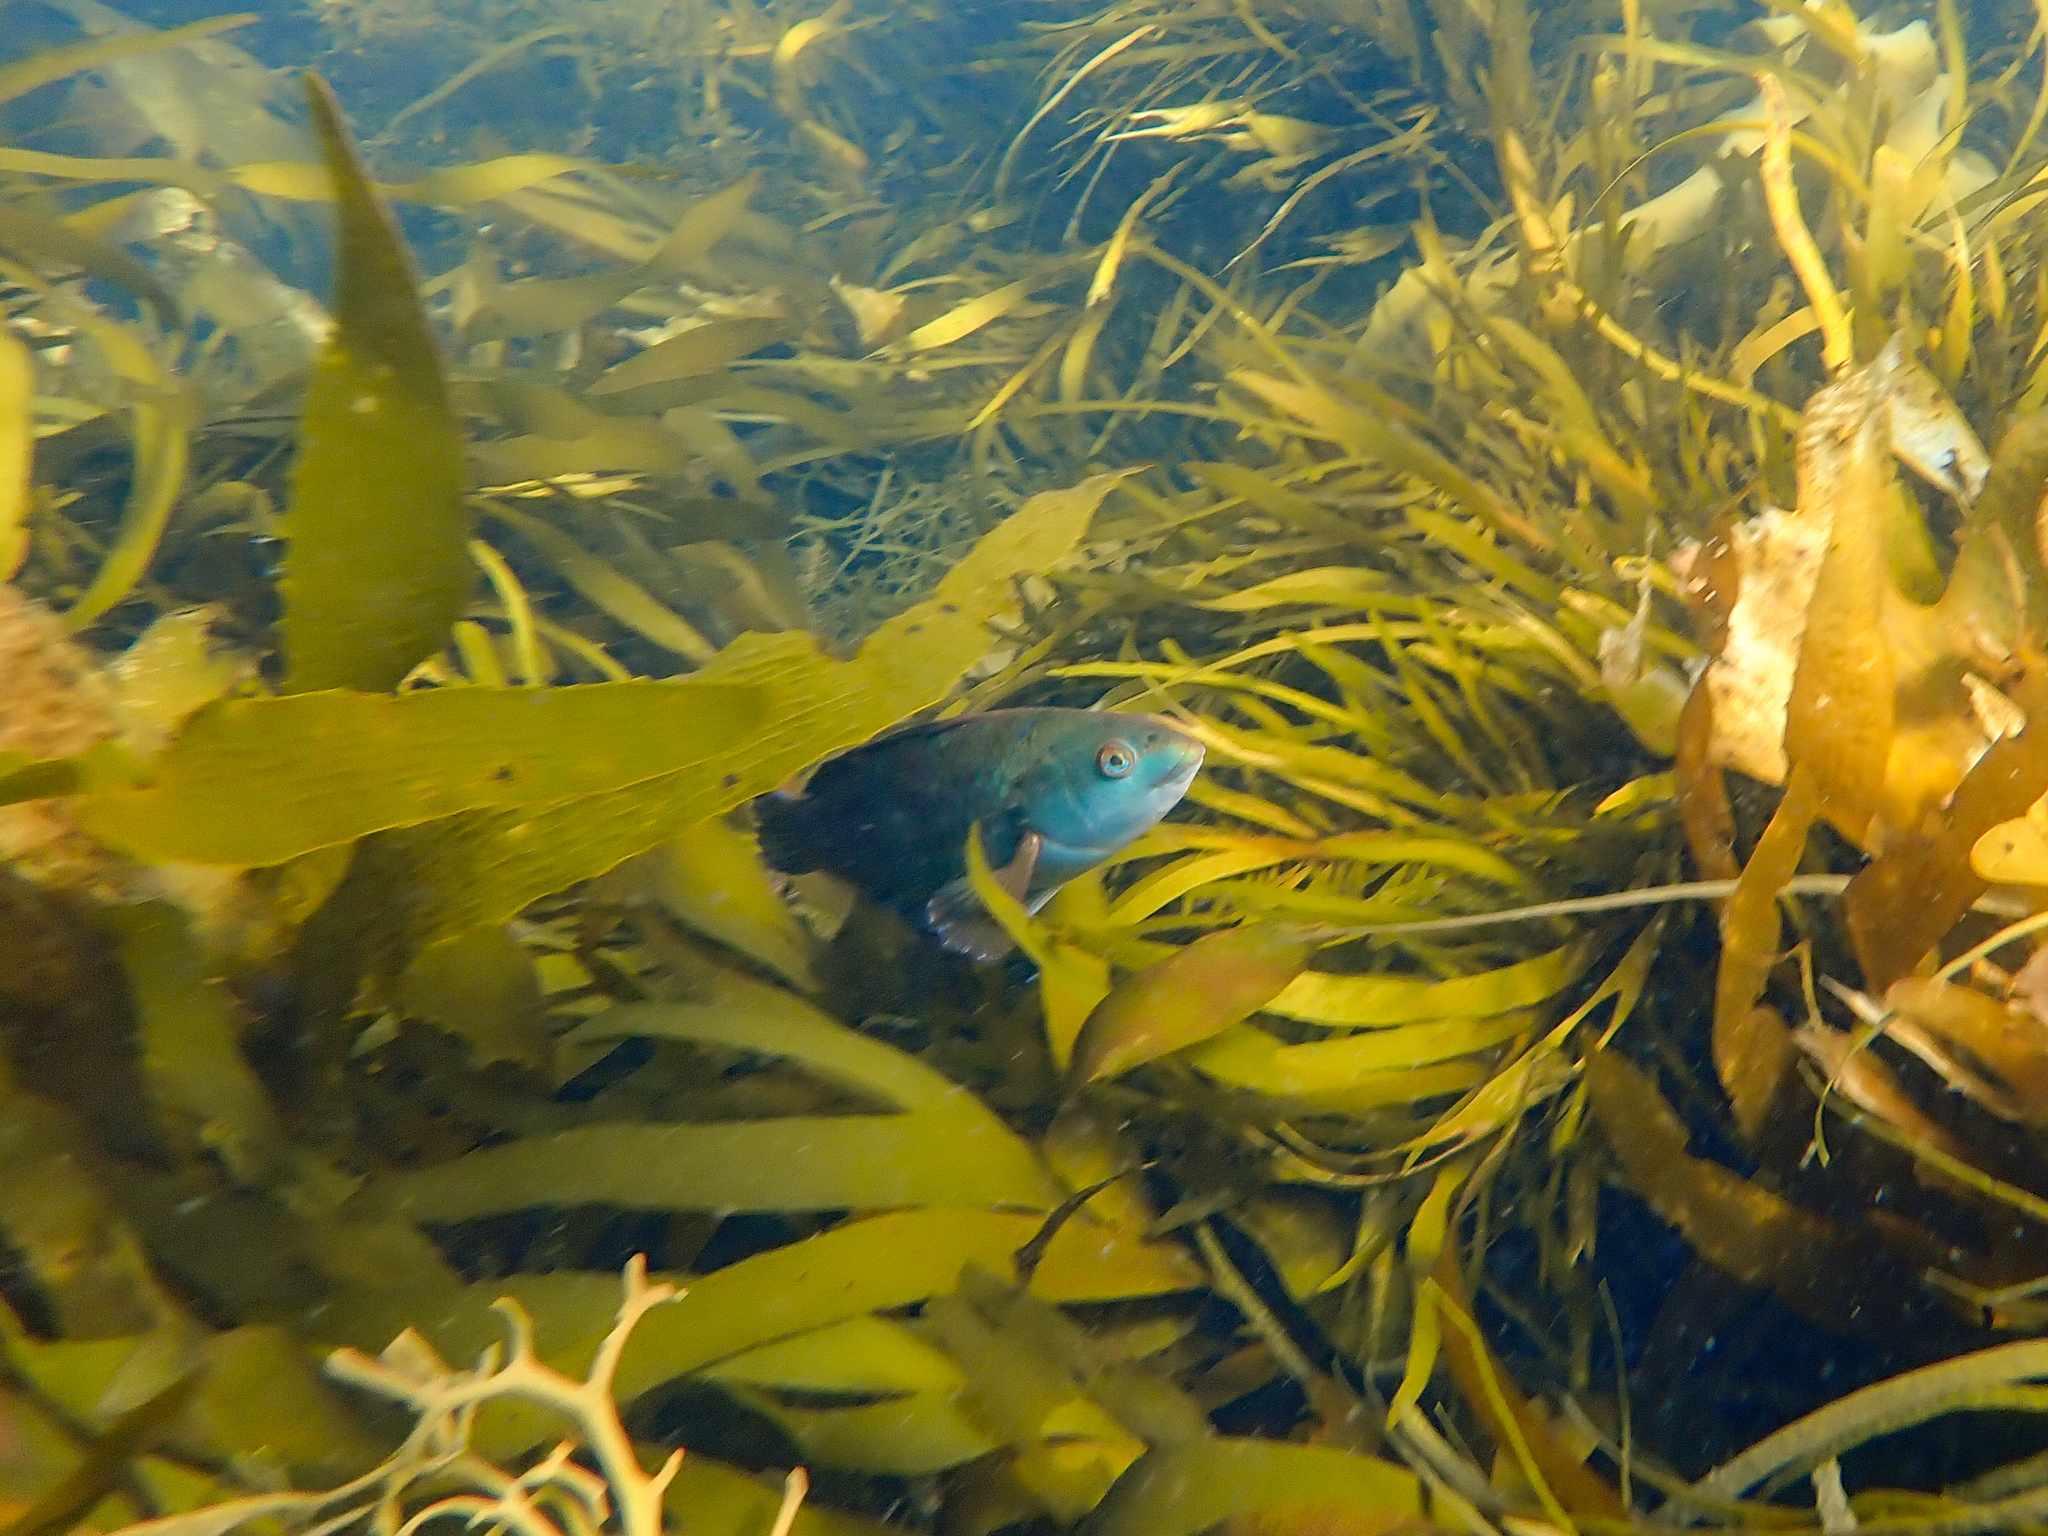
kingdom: Animalia
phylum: Chordata
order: Perciformes
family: Labridae
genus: Notolabrus
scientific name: Notolabrus fucicola
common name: Banded parrotfish
